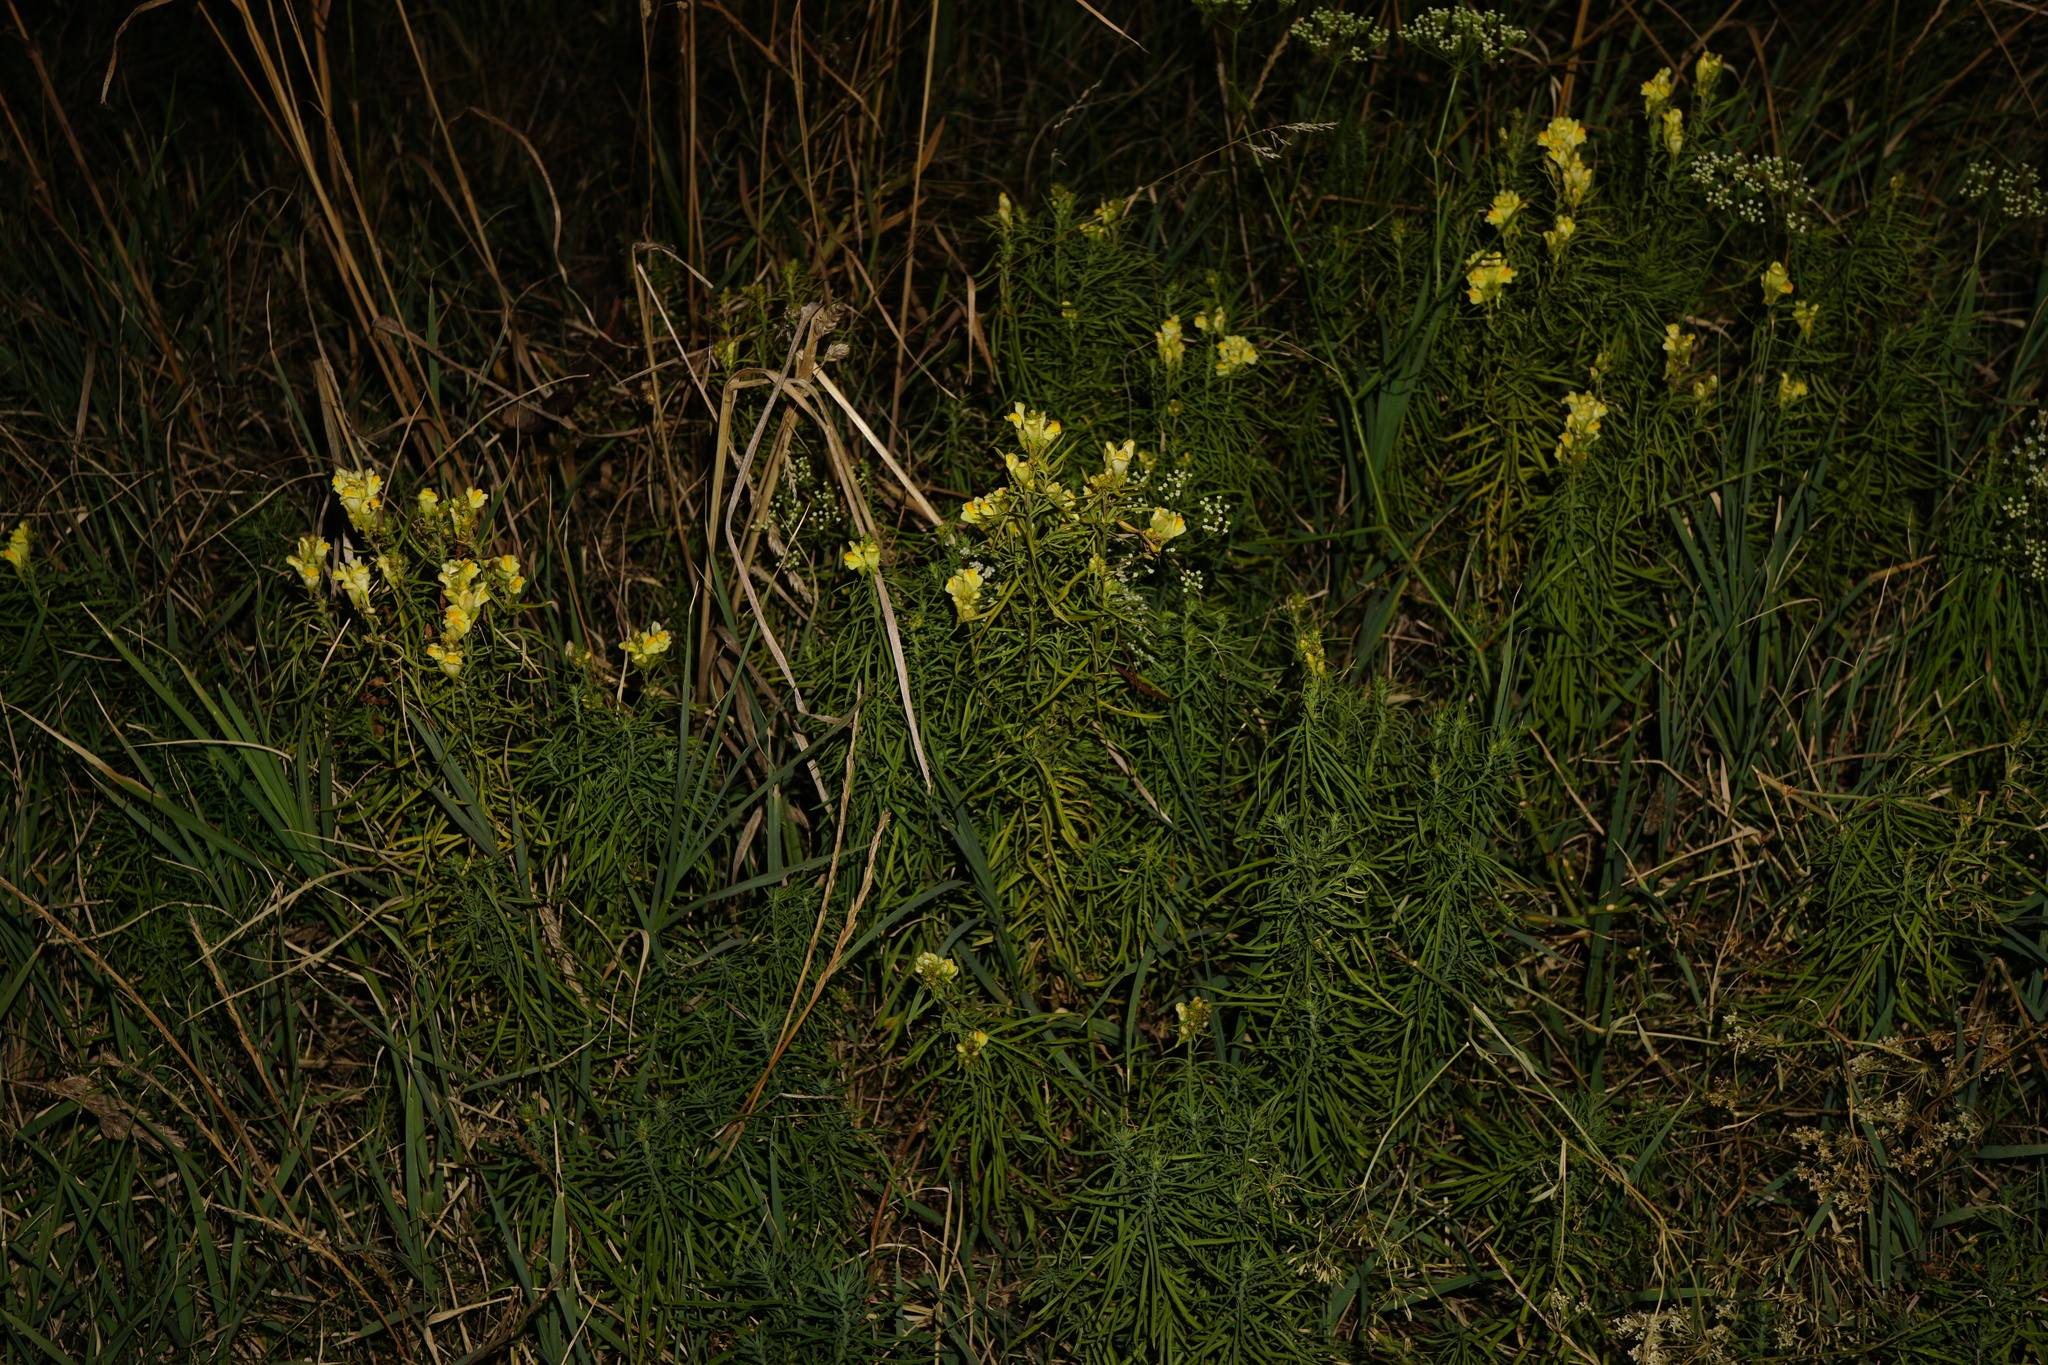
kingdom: Plantae
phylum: Tracheophyta
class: Magnoliopsida
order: Lamiales
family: Plantaginaceae
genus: Linaria
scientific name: Linaria vulgaris
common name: Butter and eggs
